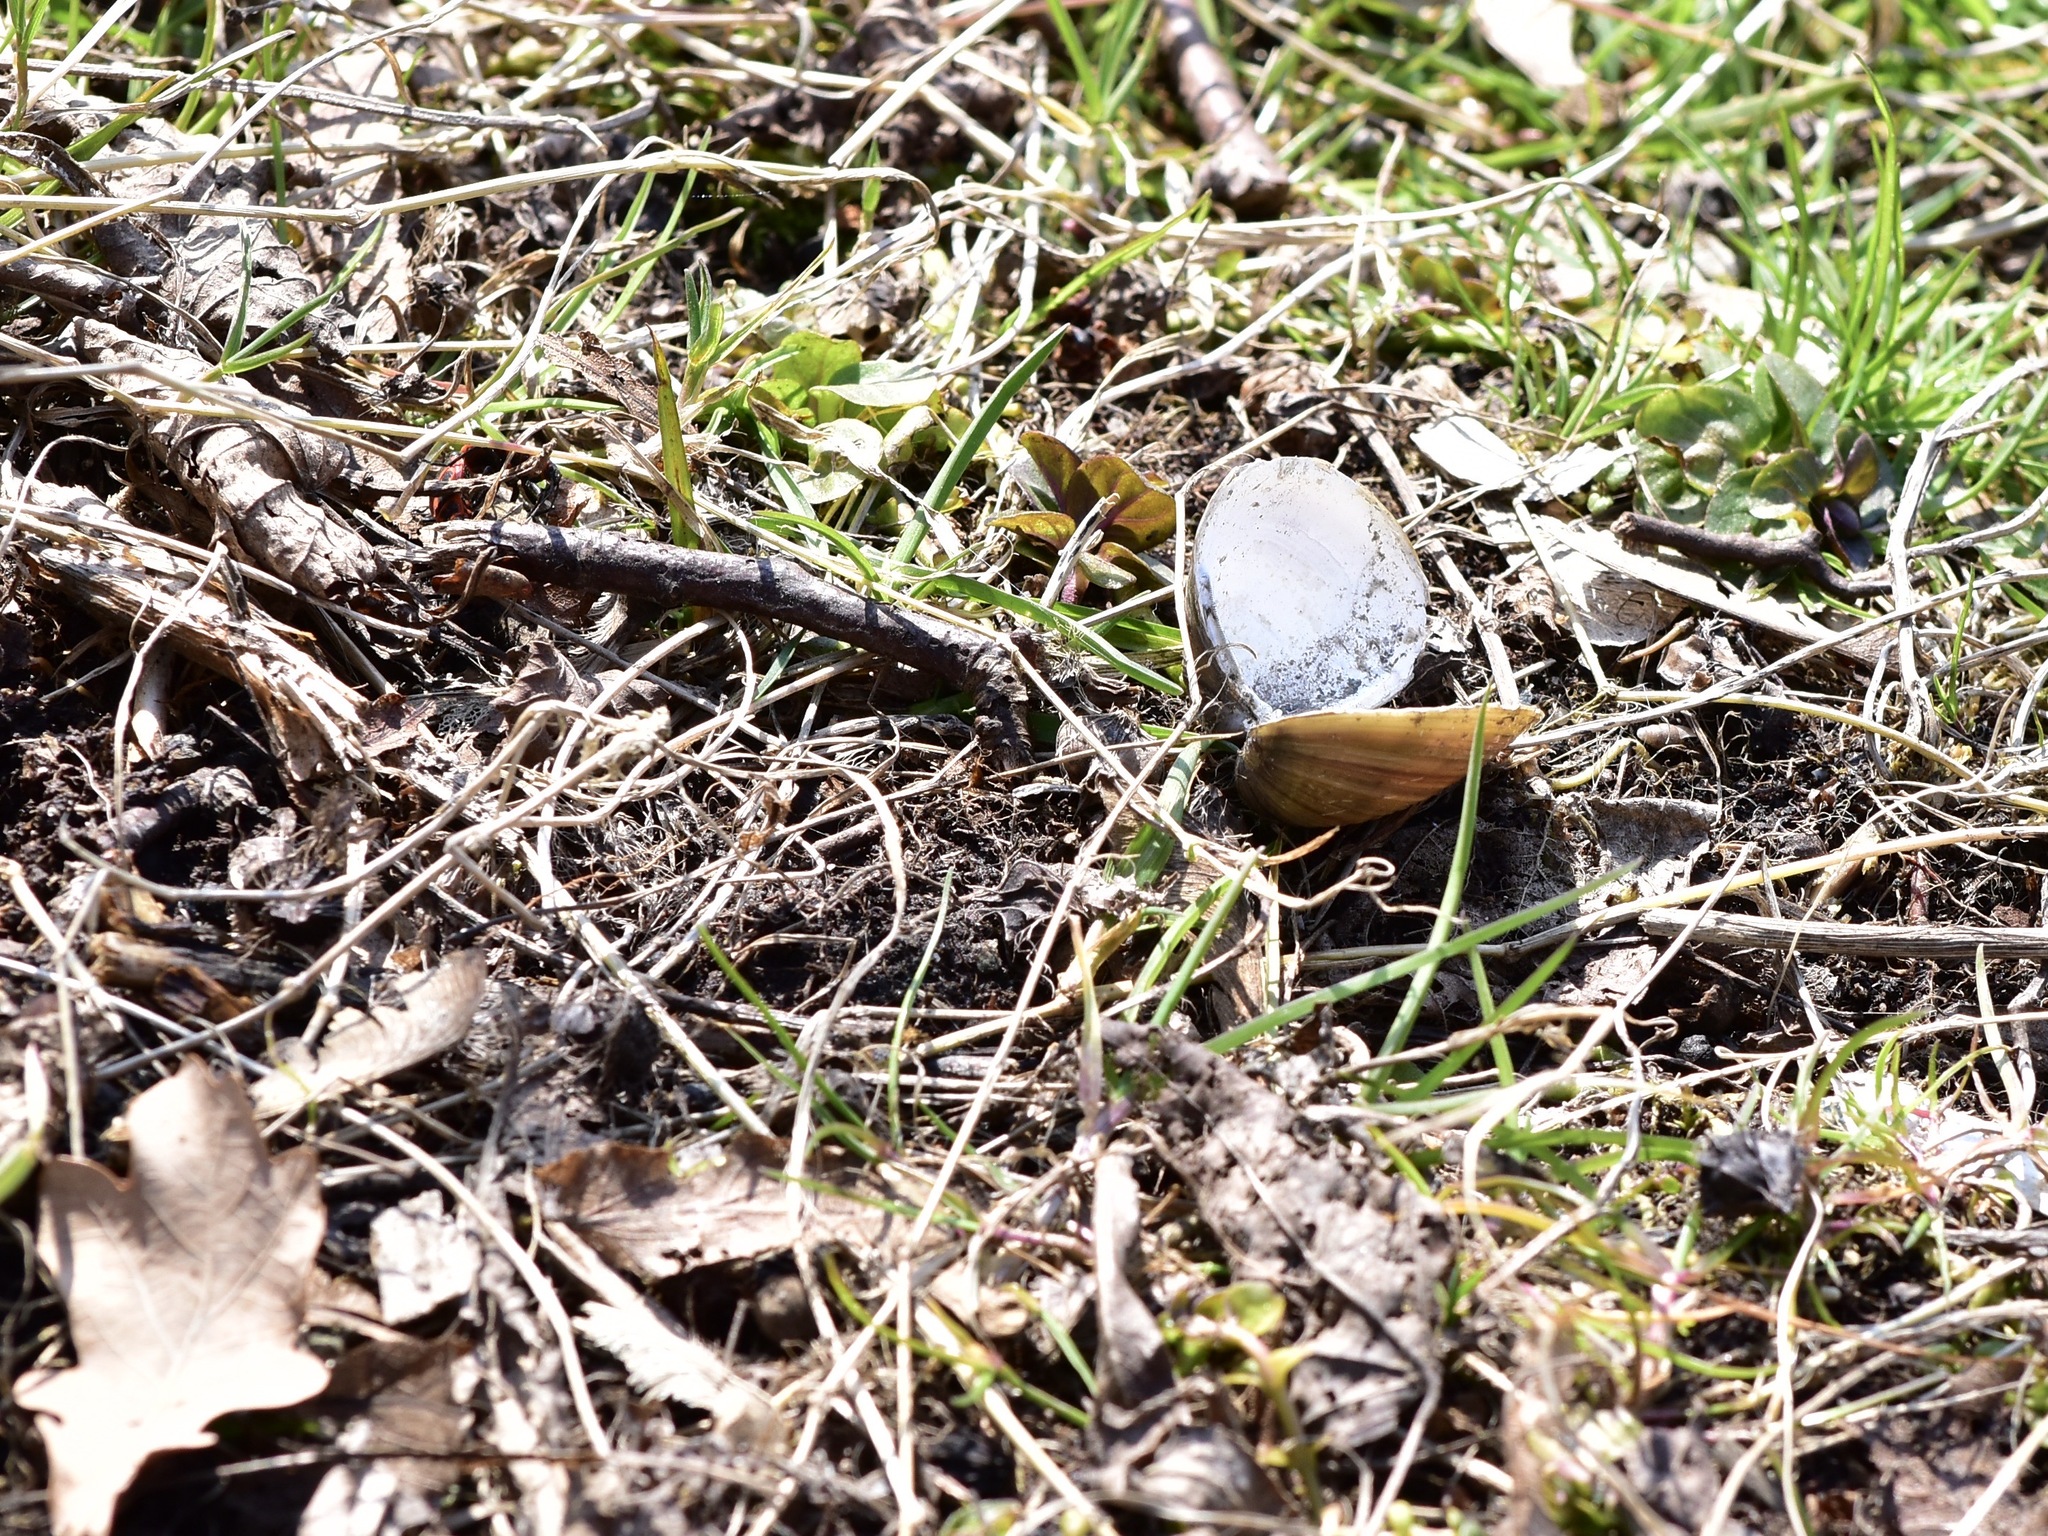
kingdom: Animalia
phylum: Mollusca
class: Bivalvia
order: Venerida
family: Cyrenidae
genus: Corbicula
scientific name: Corbicula fluminea
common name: Asian clam
